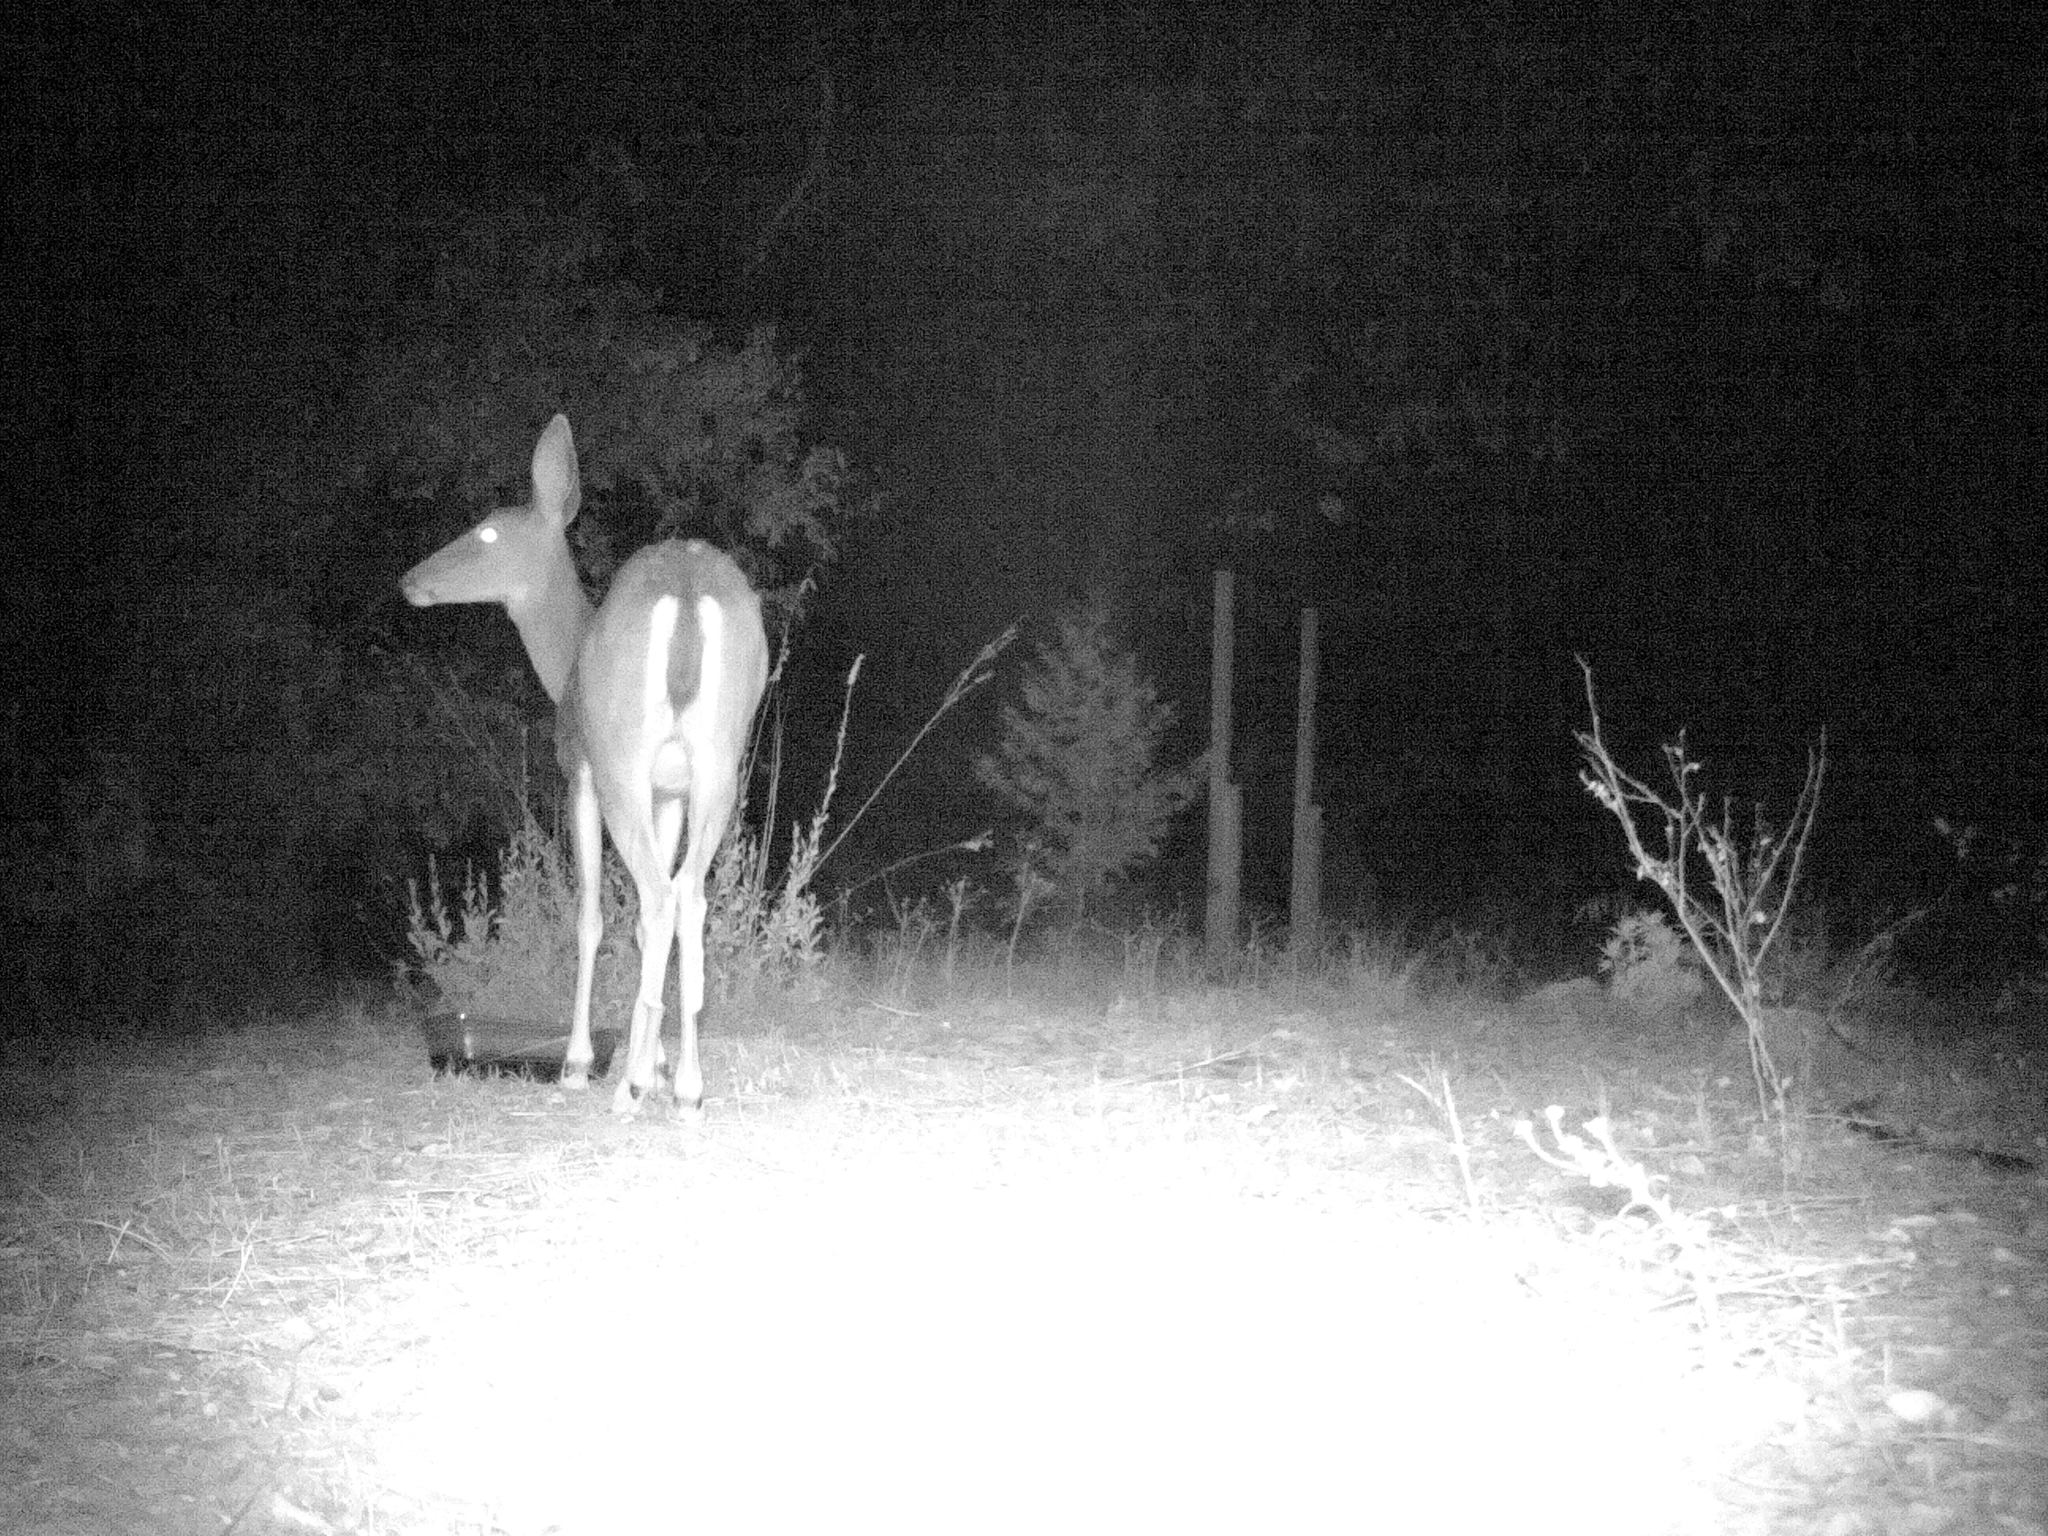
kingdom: Animalia
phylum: Chordata
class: Mammalia
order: Artiodactyla
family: Cervidae
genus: Odocoileus
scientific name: Odocoileus hemionus
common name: Mule deer
